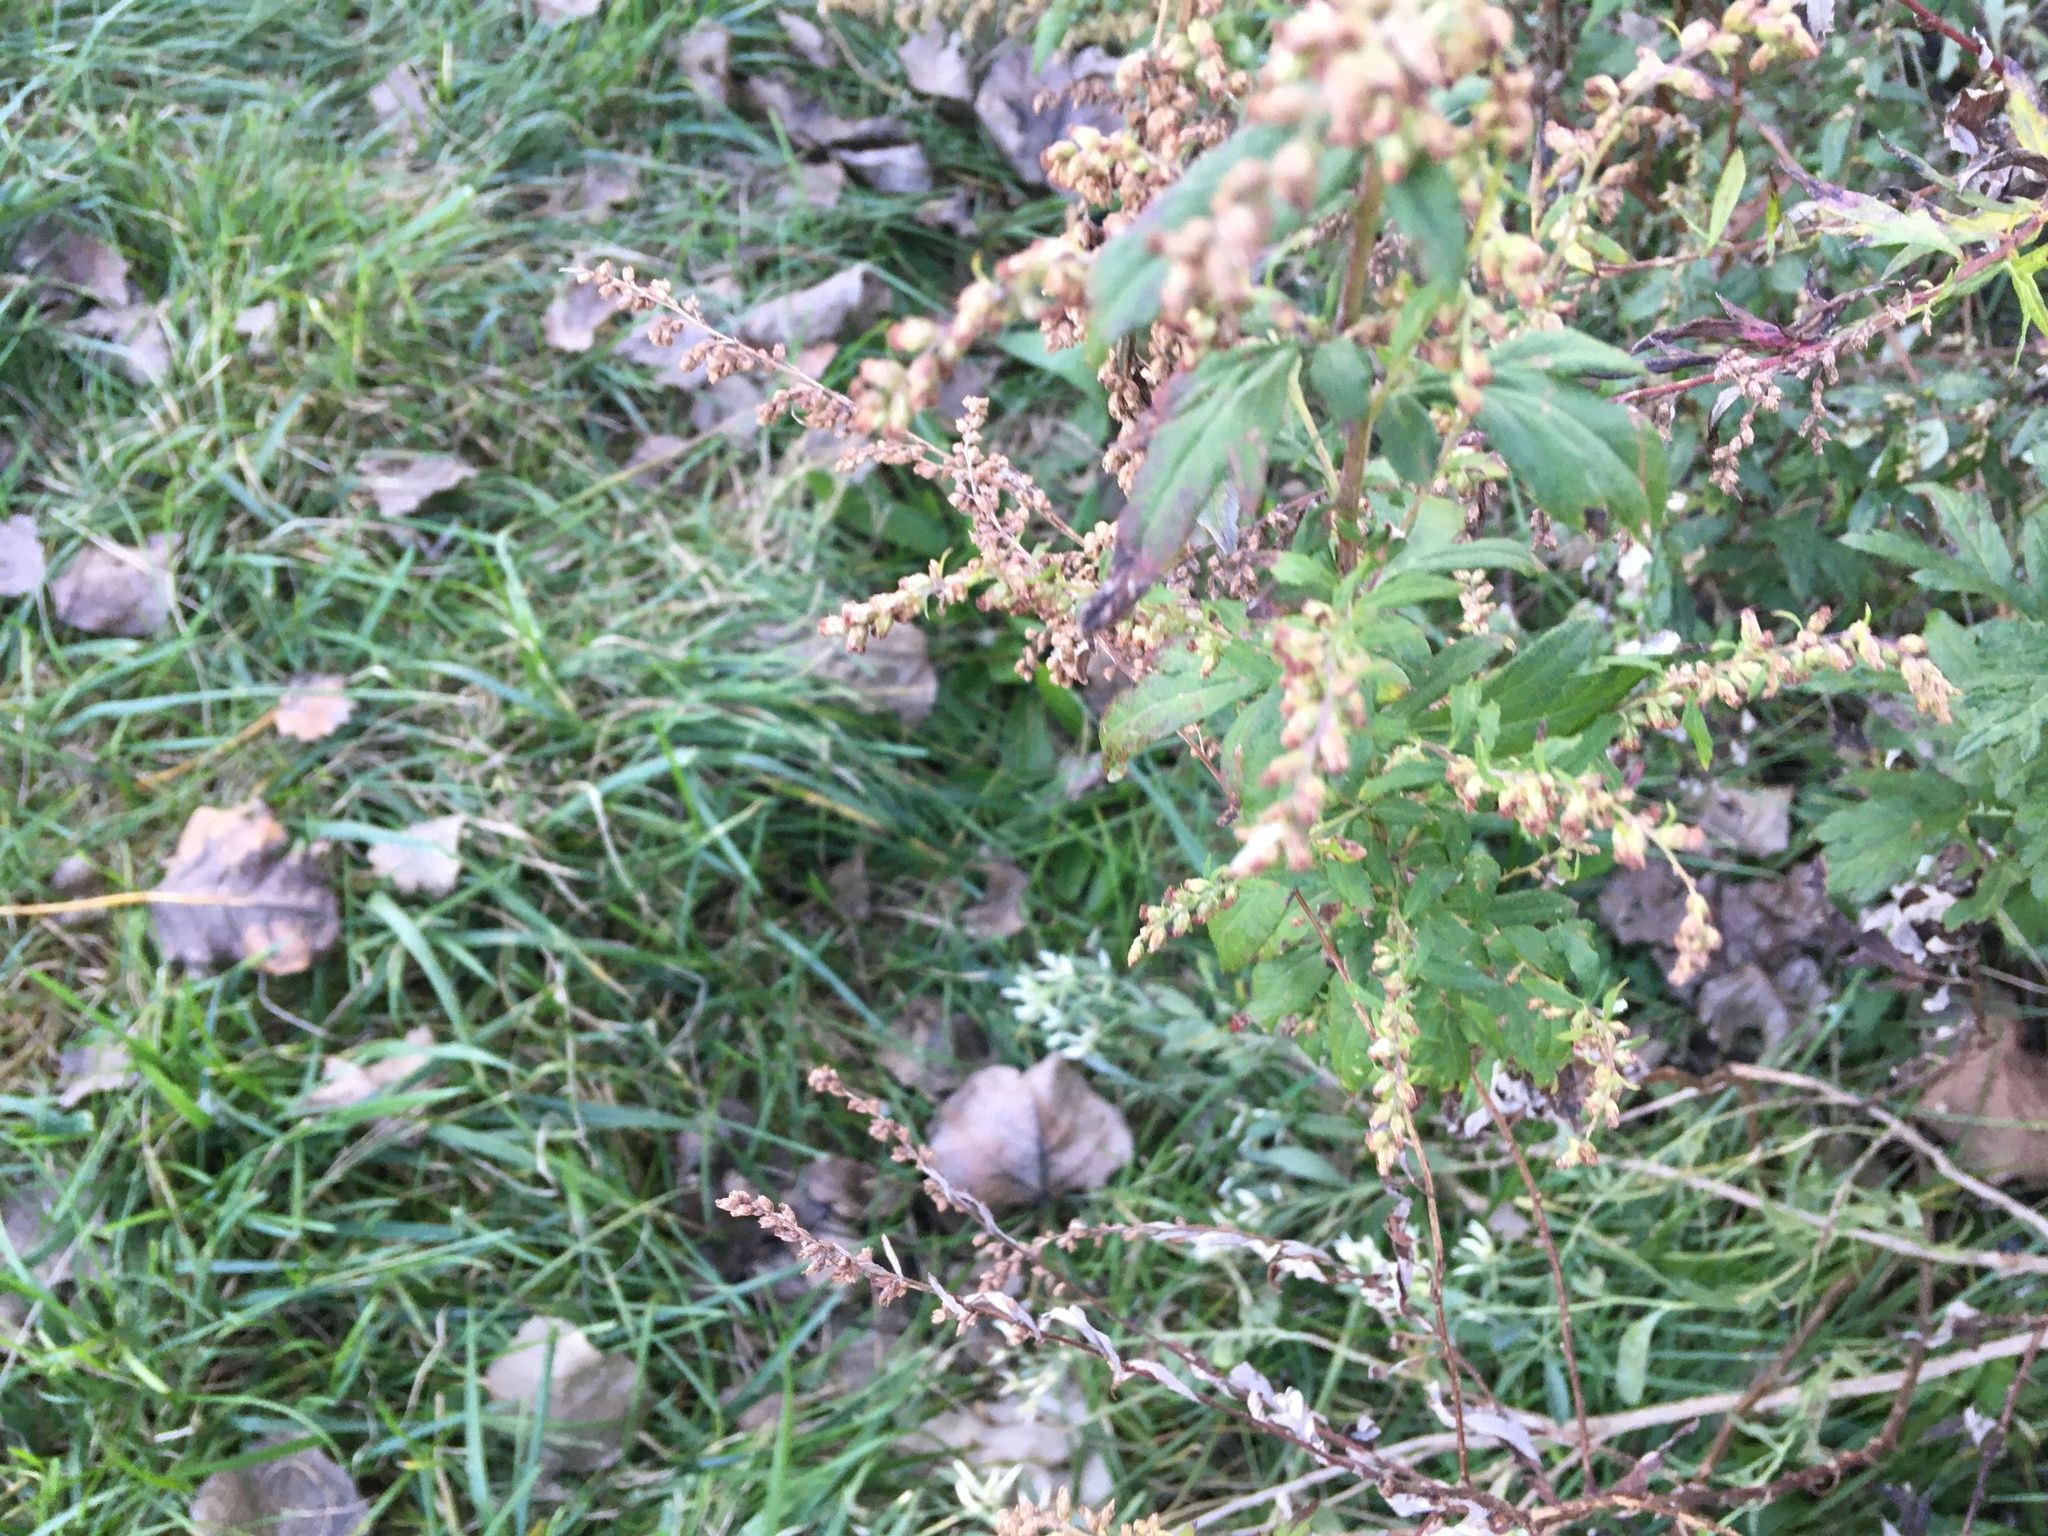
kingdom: Plantae
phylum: Tracheophyta
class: Magnoliopsida
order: Asterales
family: Asteraceae
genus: Artemisia
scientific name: Artemisia vulgaris
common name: Mugwort
